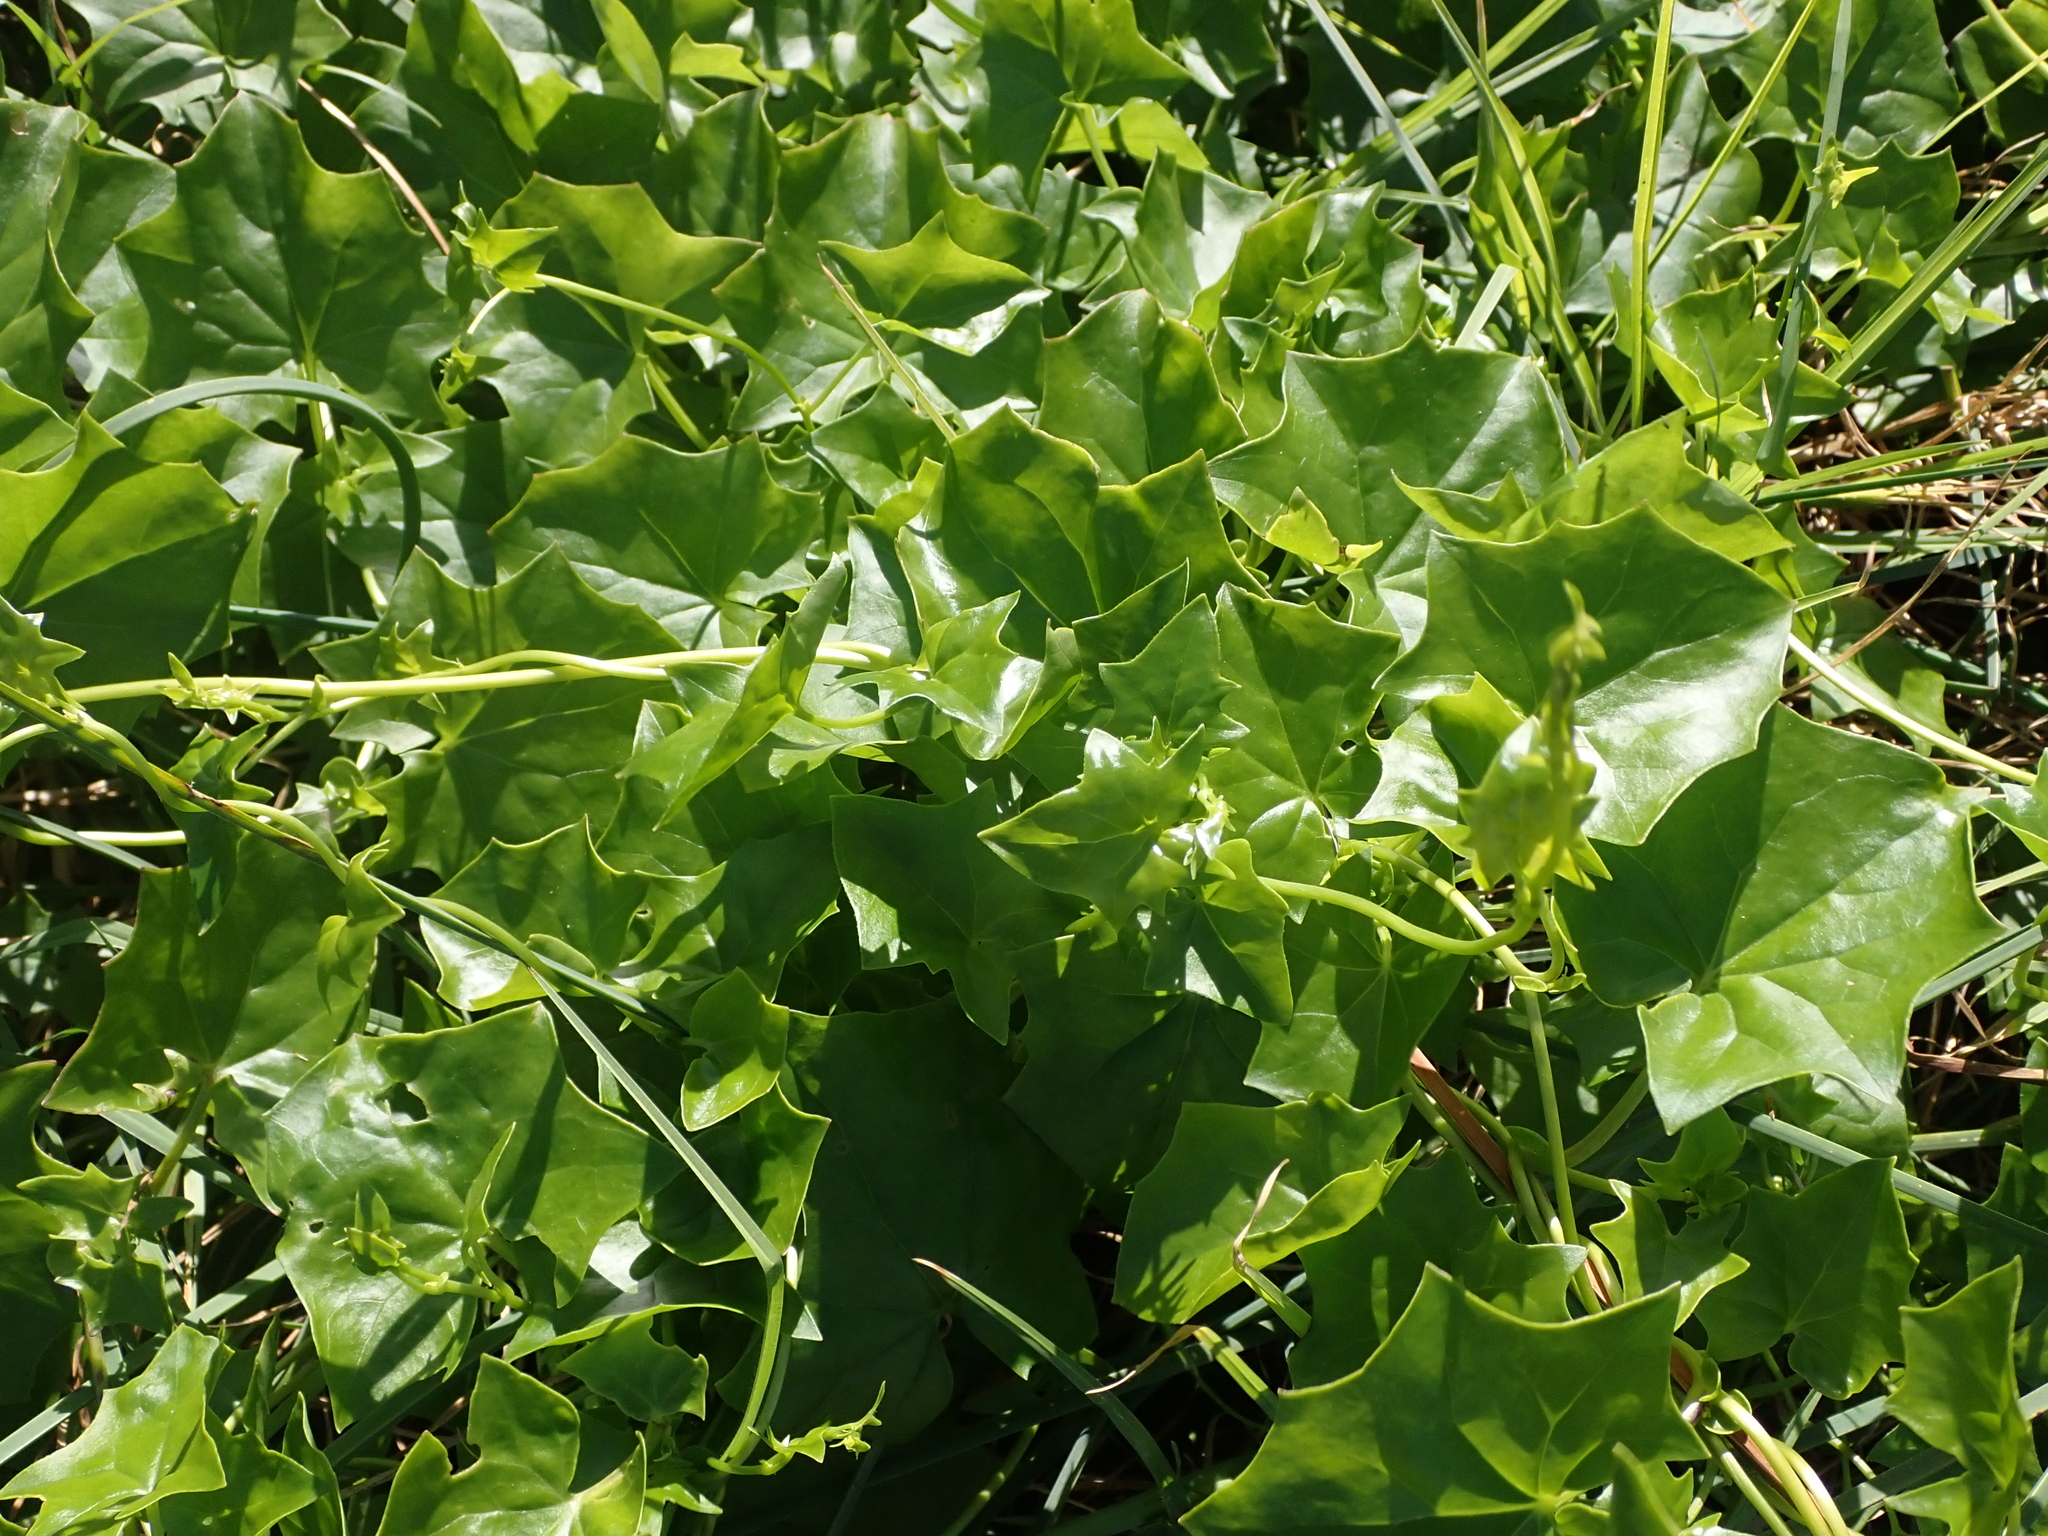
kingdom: Plantae
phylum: Tracheophyta
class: Magnoliopsida
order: Asterales
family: Asteraceae
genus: Delairea
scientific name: Delairea odorata
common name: Cape-ivy
